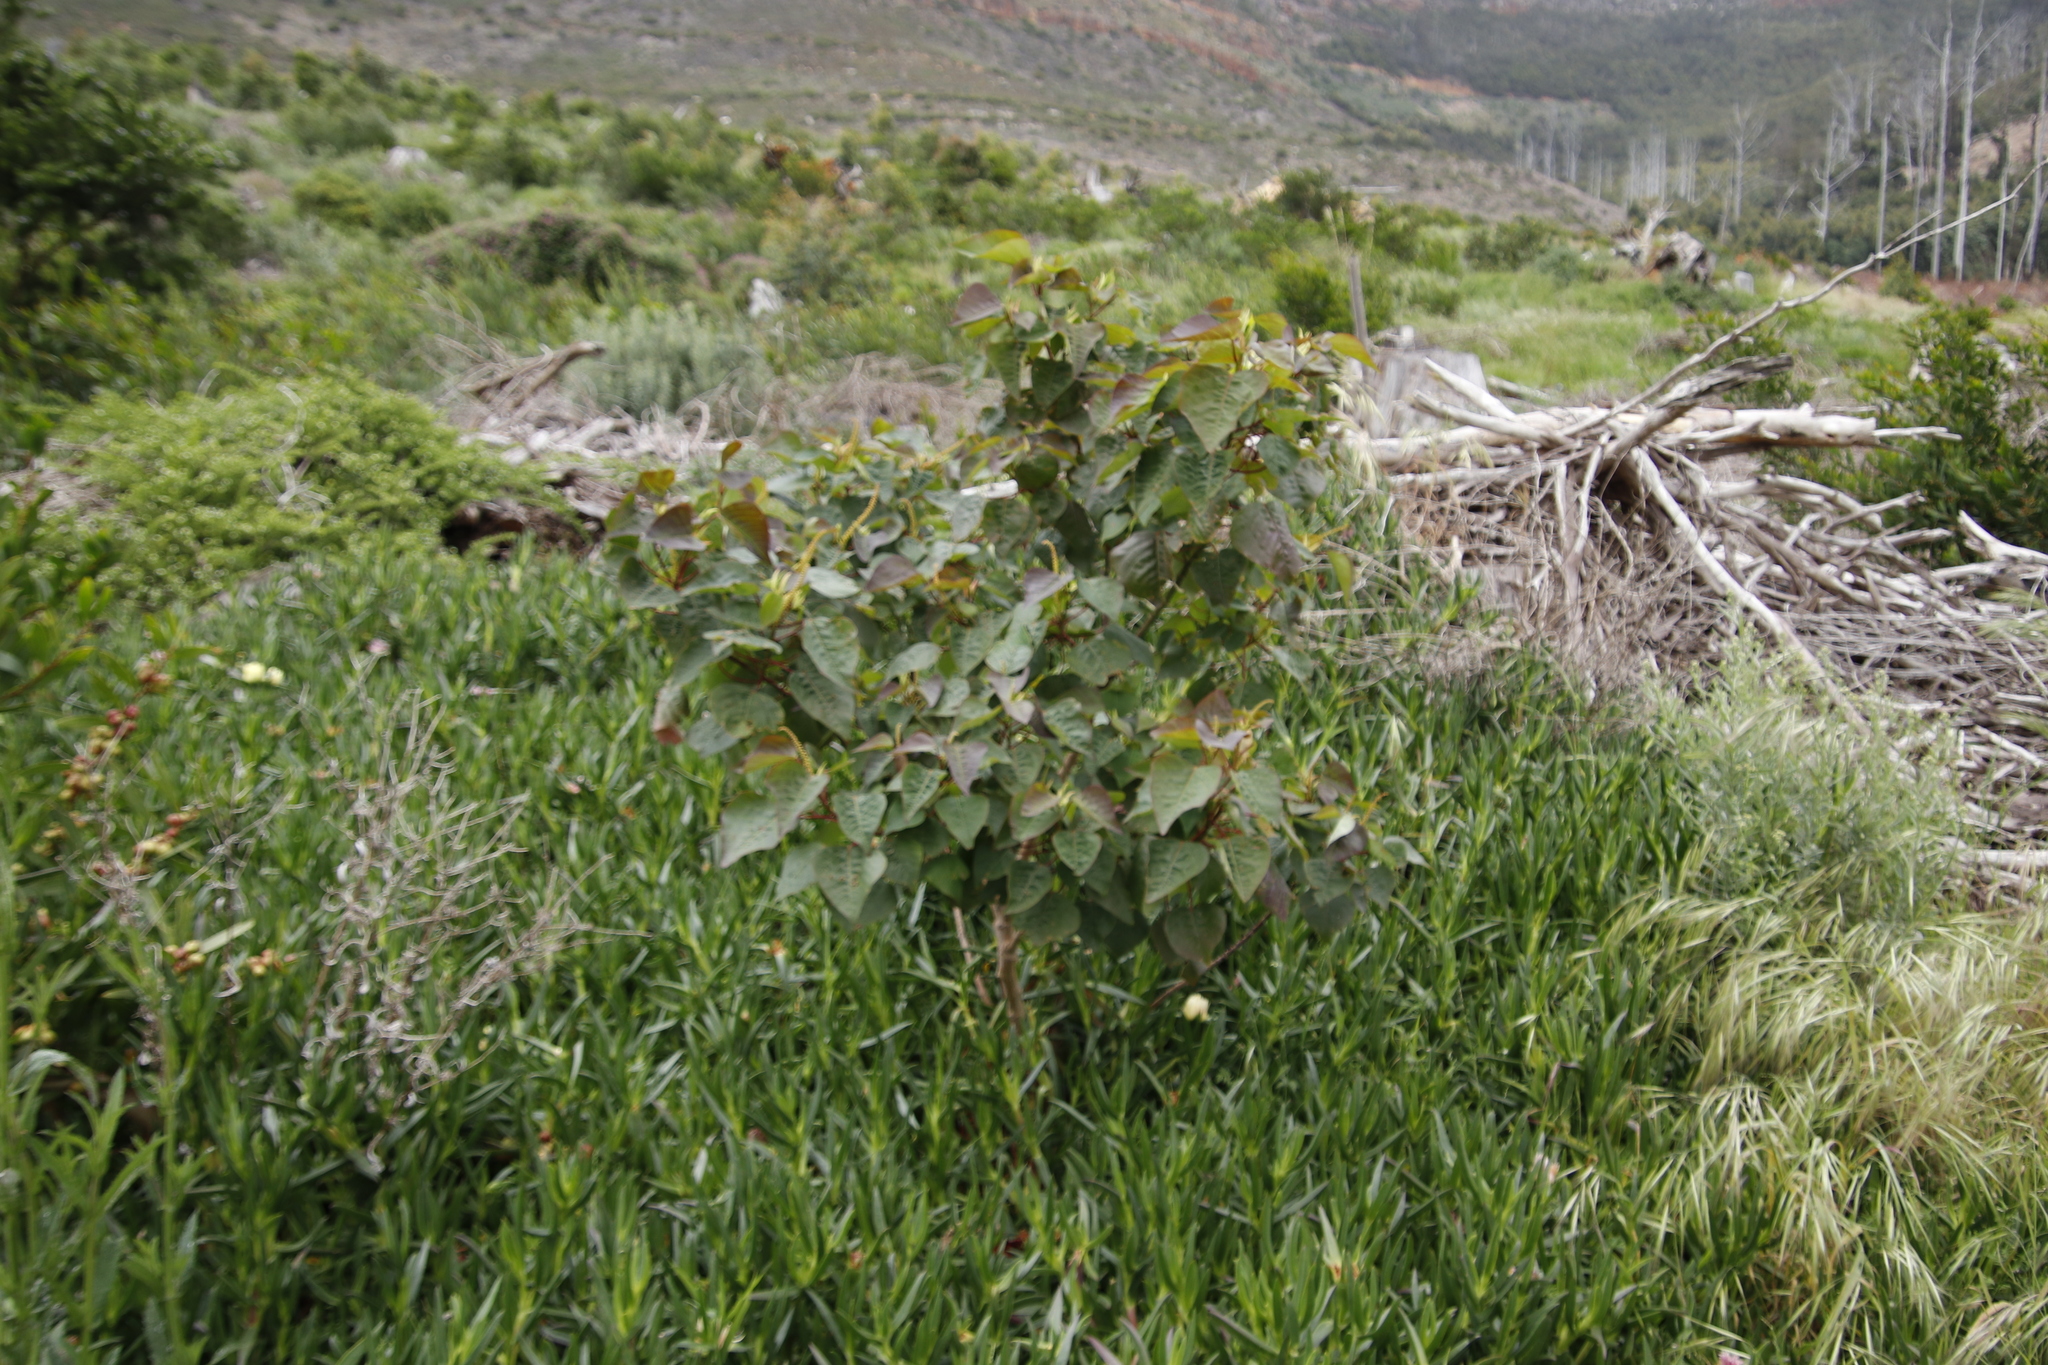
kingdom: Plantae
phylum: Tracheophyta
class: Magnoliopsida
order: Malpighiales
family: Euphorbiaceae
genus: Homalanthus
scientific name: Homalanthus populifolius
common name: Queensland poplar
